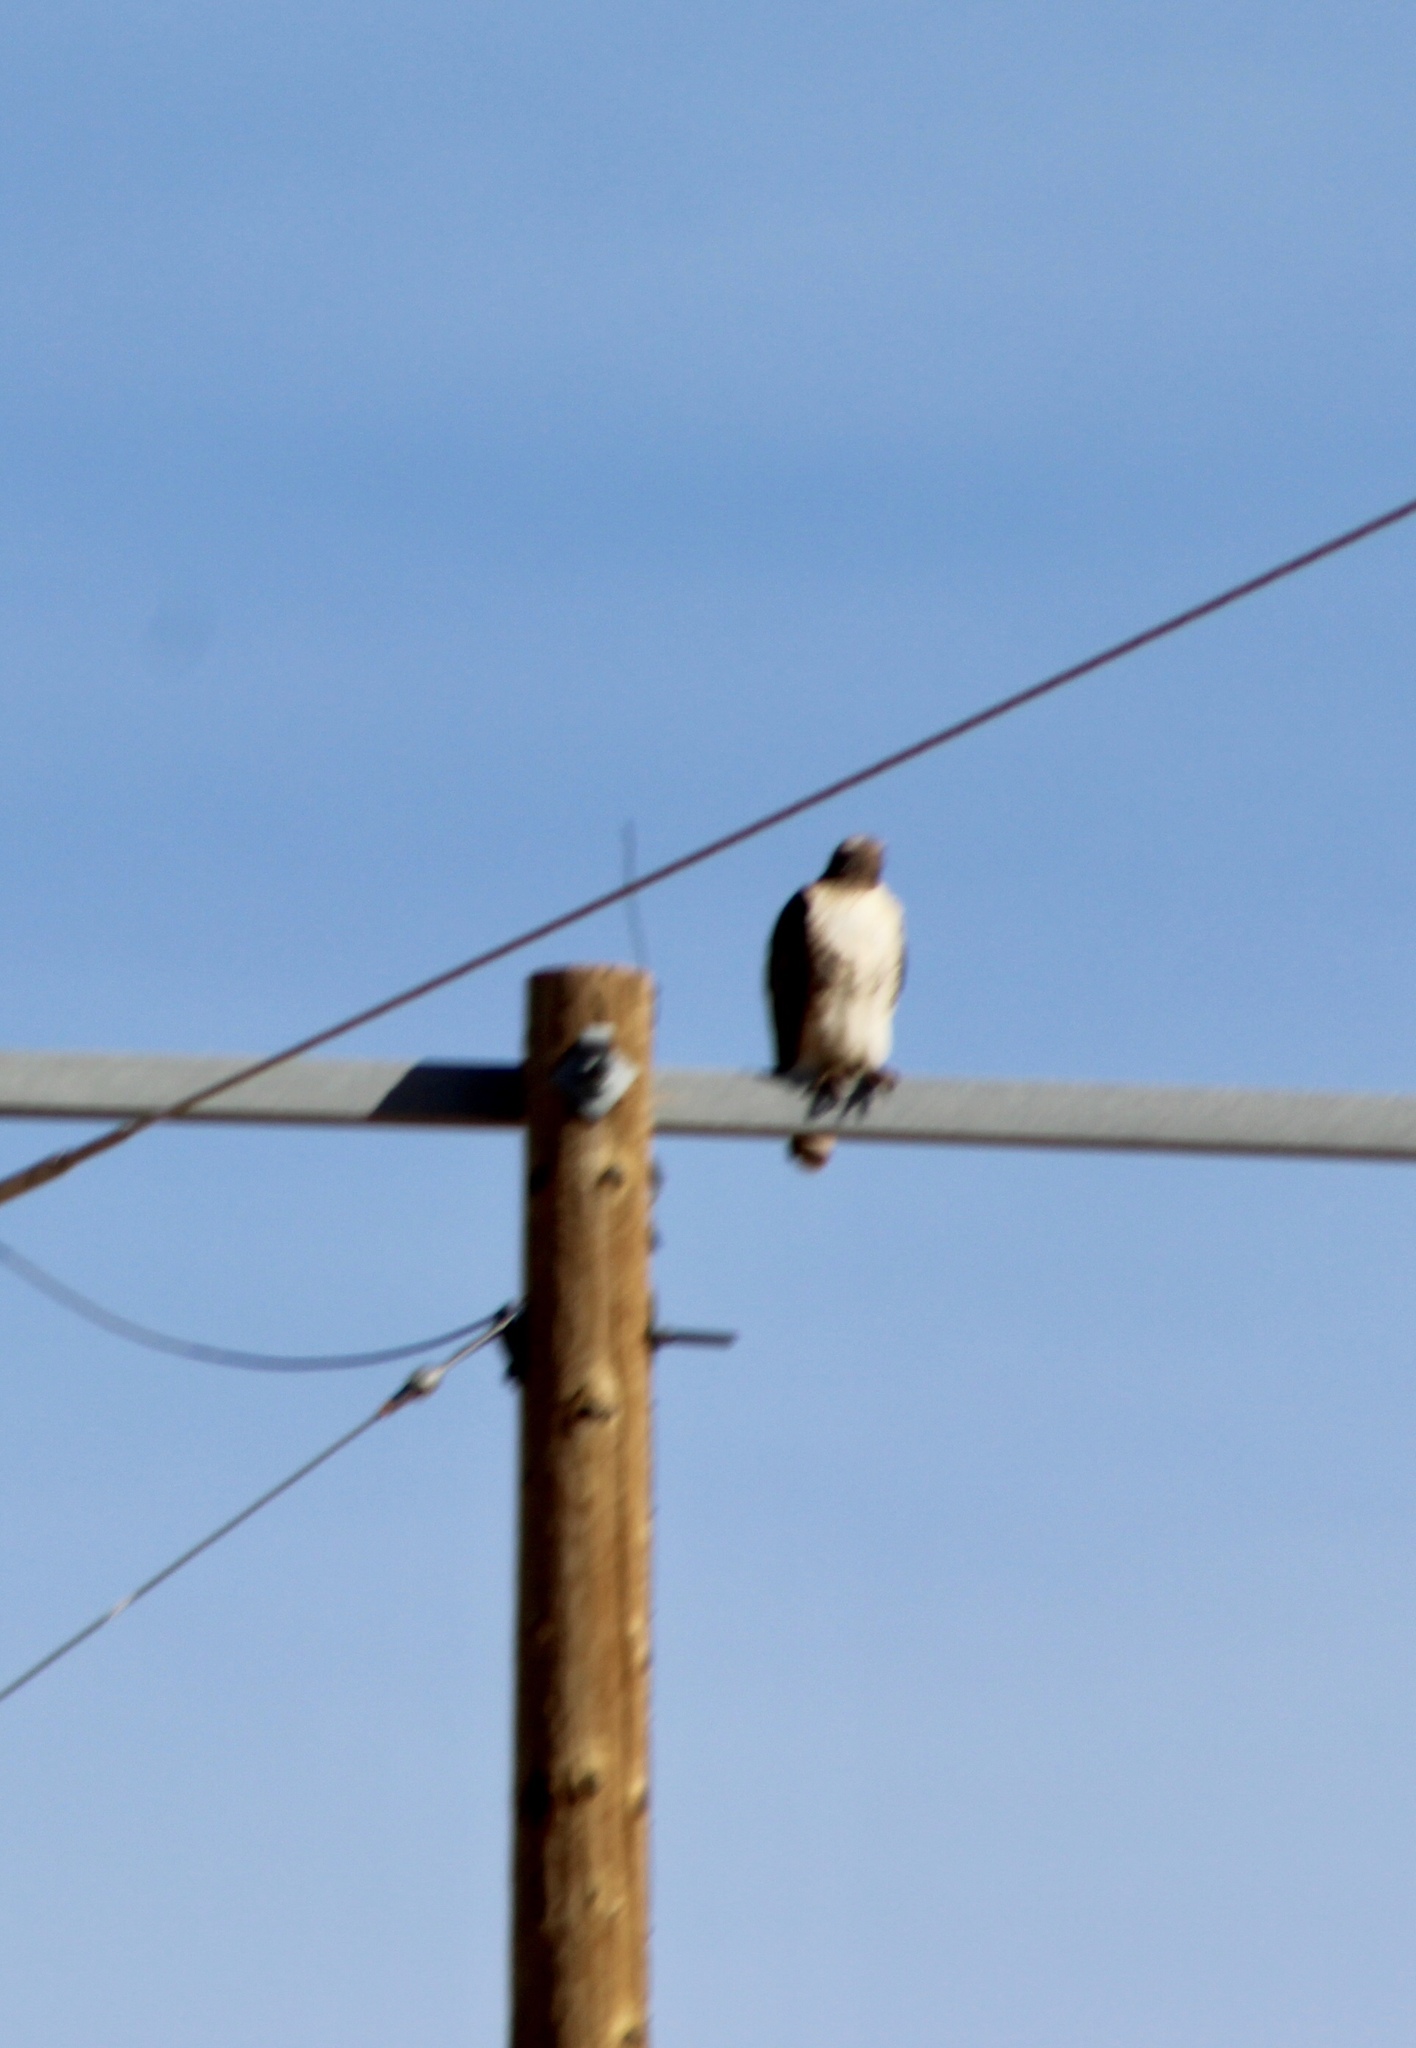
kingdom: Animalia
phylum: Chordata
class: Aves
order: Accipitriformes
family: Accipitridae
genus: Buteo
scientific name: Buteo jamaicensis
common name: Red-tailed hawk
